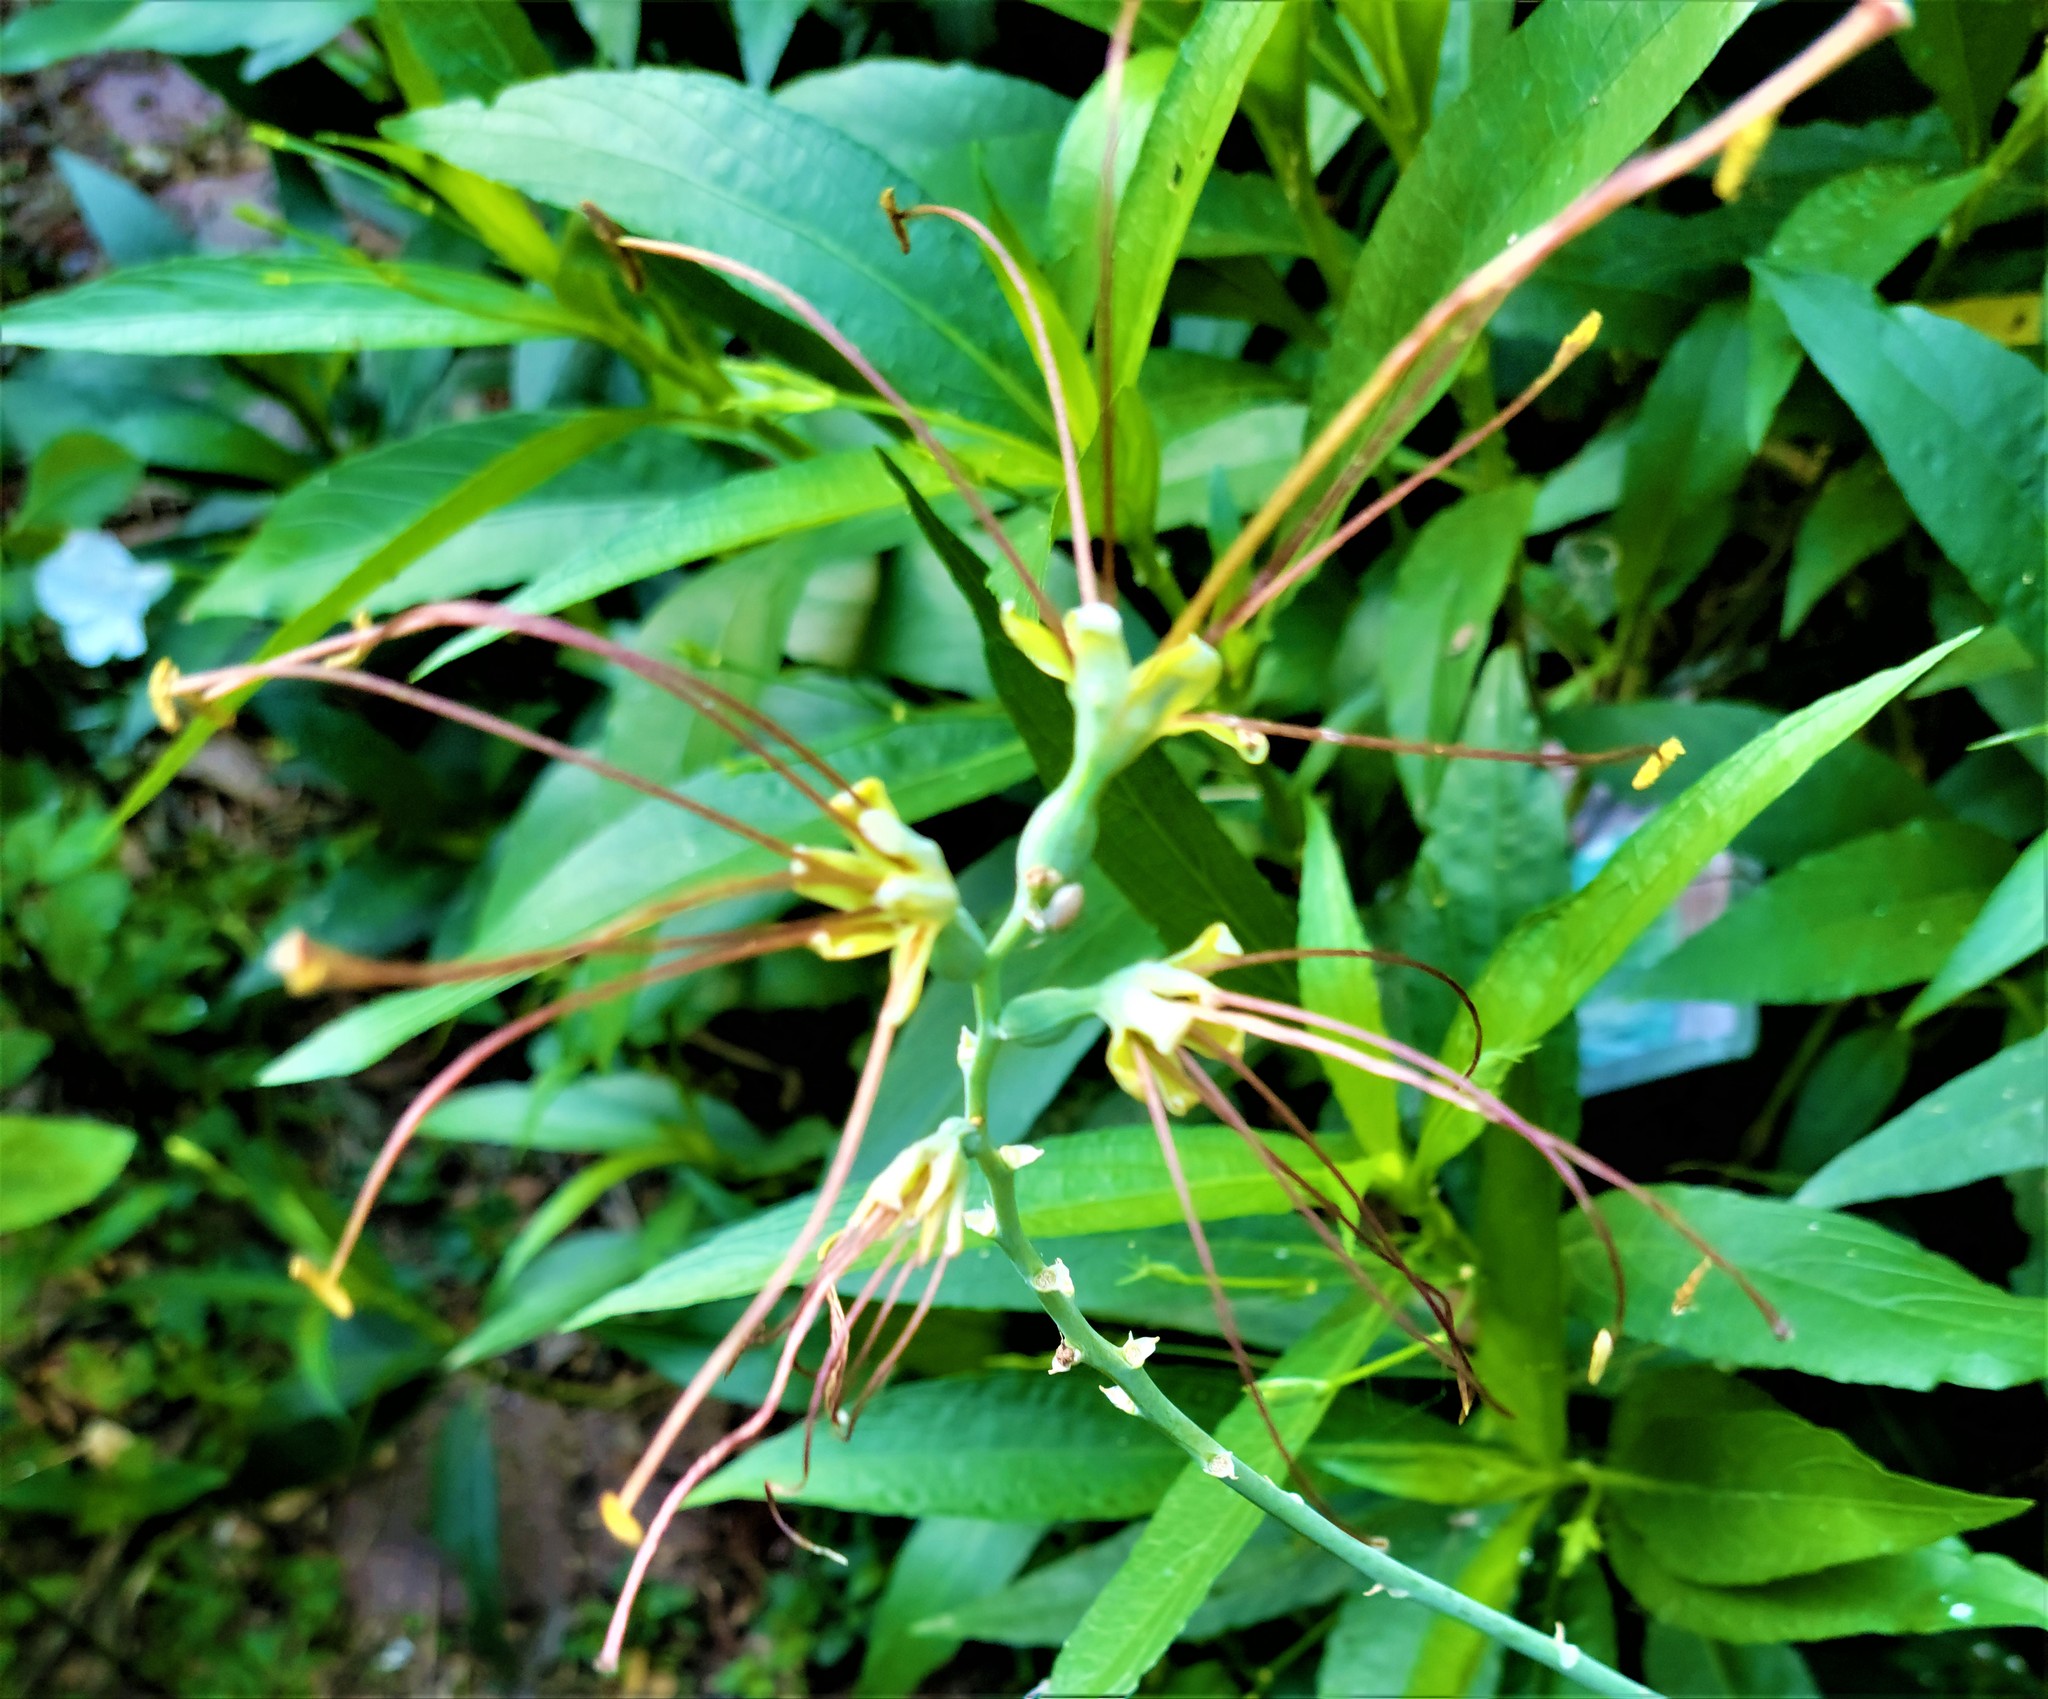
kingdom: Plantae
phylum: Tracheophyta
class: Liliopsida
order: Asparagales
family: Asparagaceae
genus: Agave
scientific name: Agave variegata
